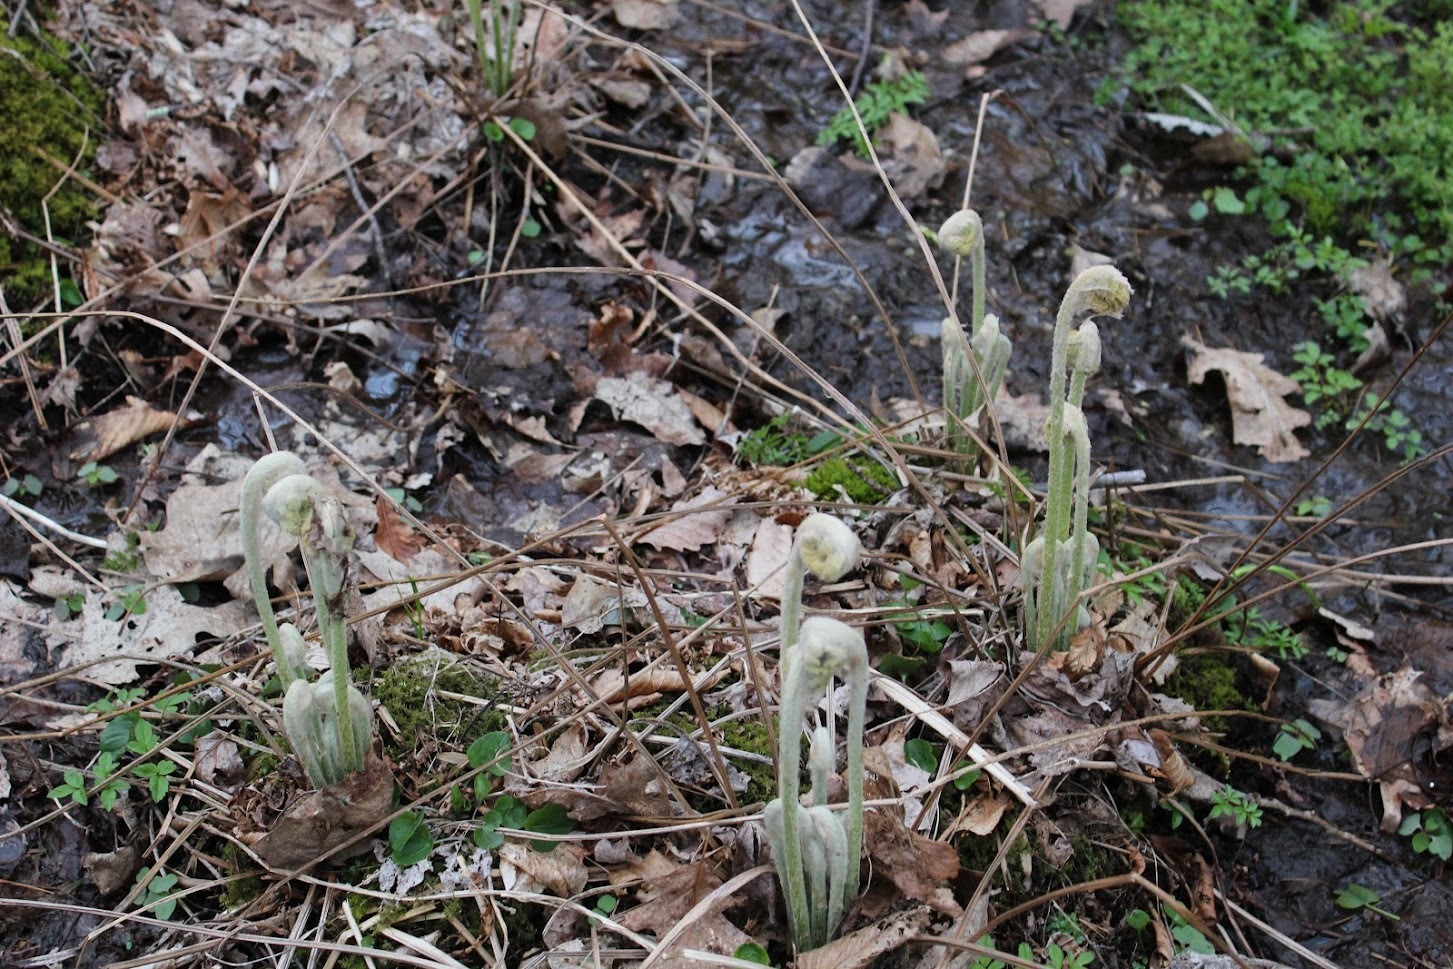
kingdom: Plantae
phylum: Tracheophyta
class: Polypodiopsida
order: Osmundales
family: Osmundaceae
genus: Osmundastrum
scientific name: Osmundastrum cinnamomeum
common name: Cinnamon fern
